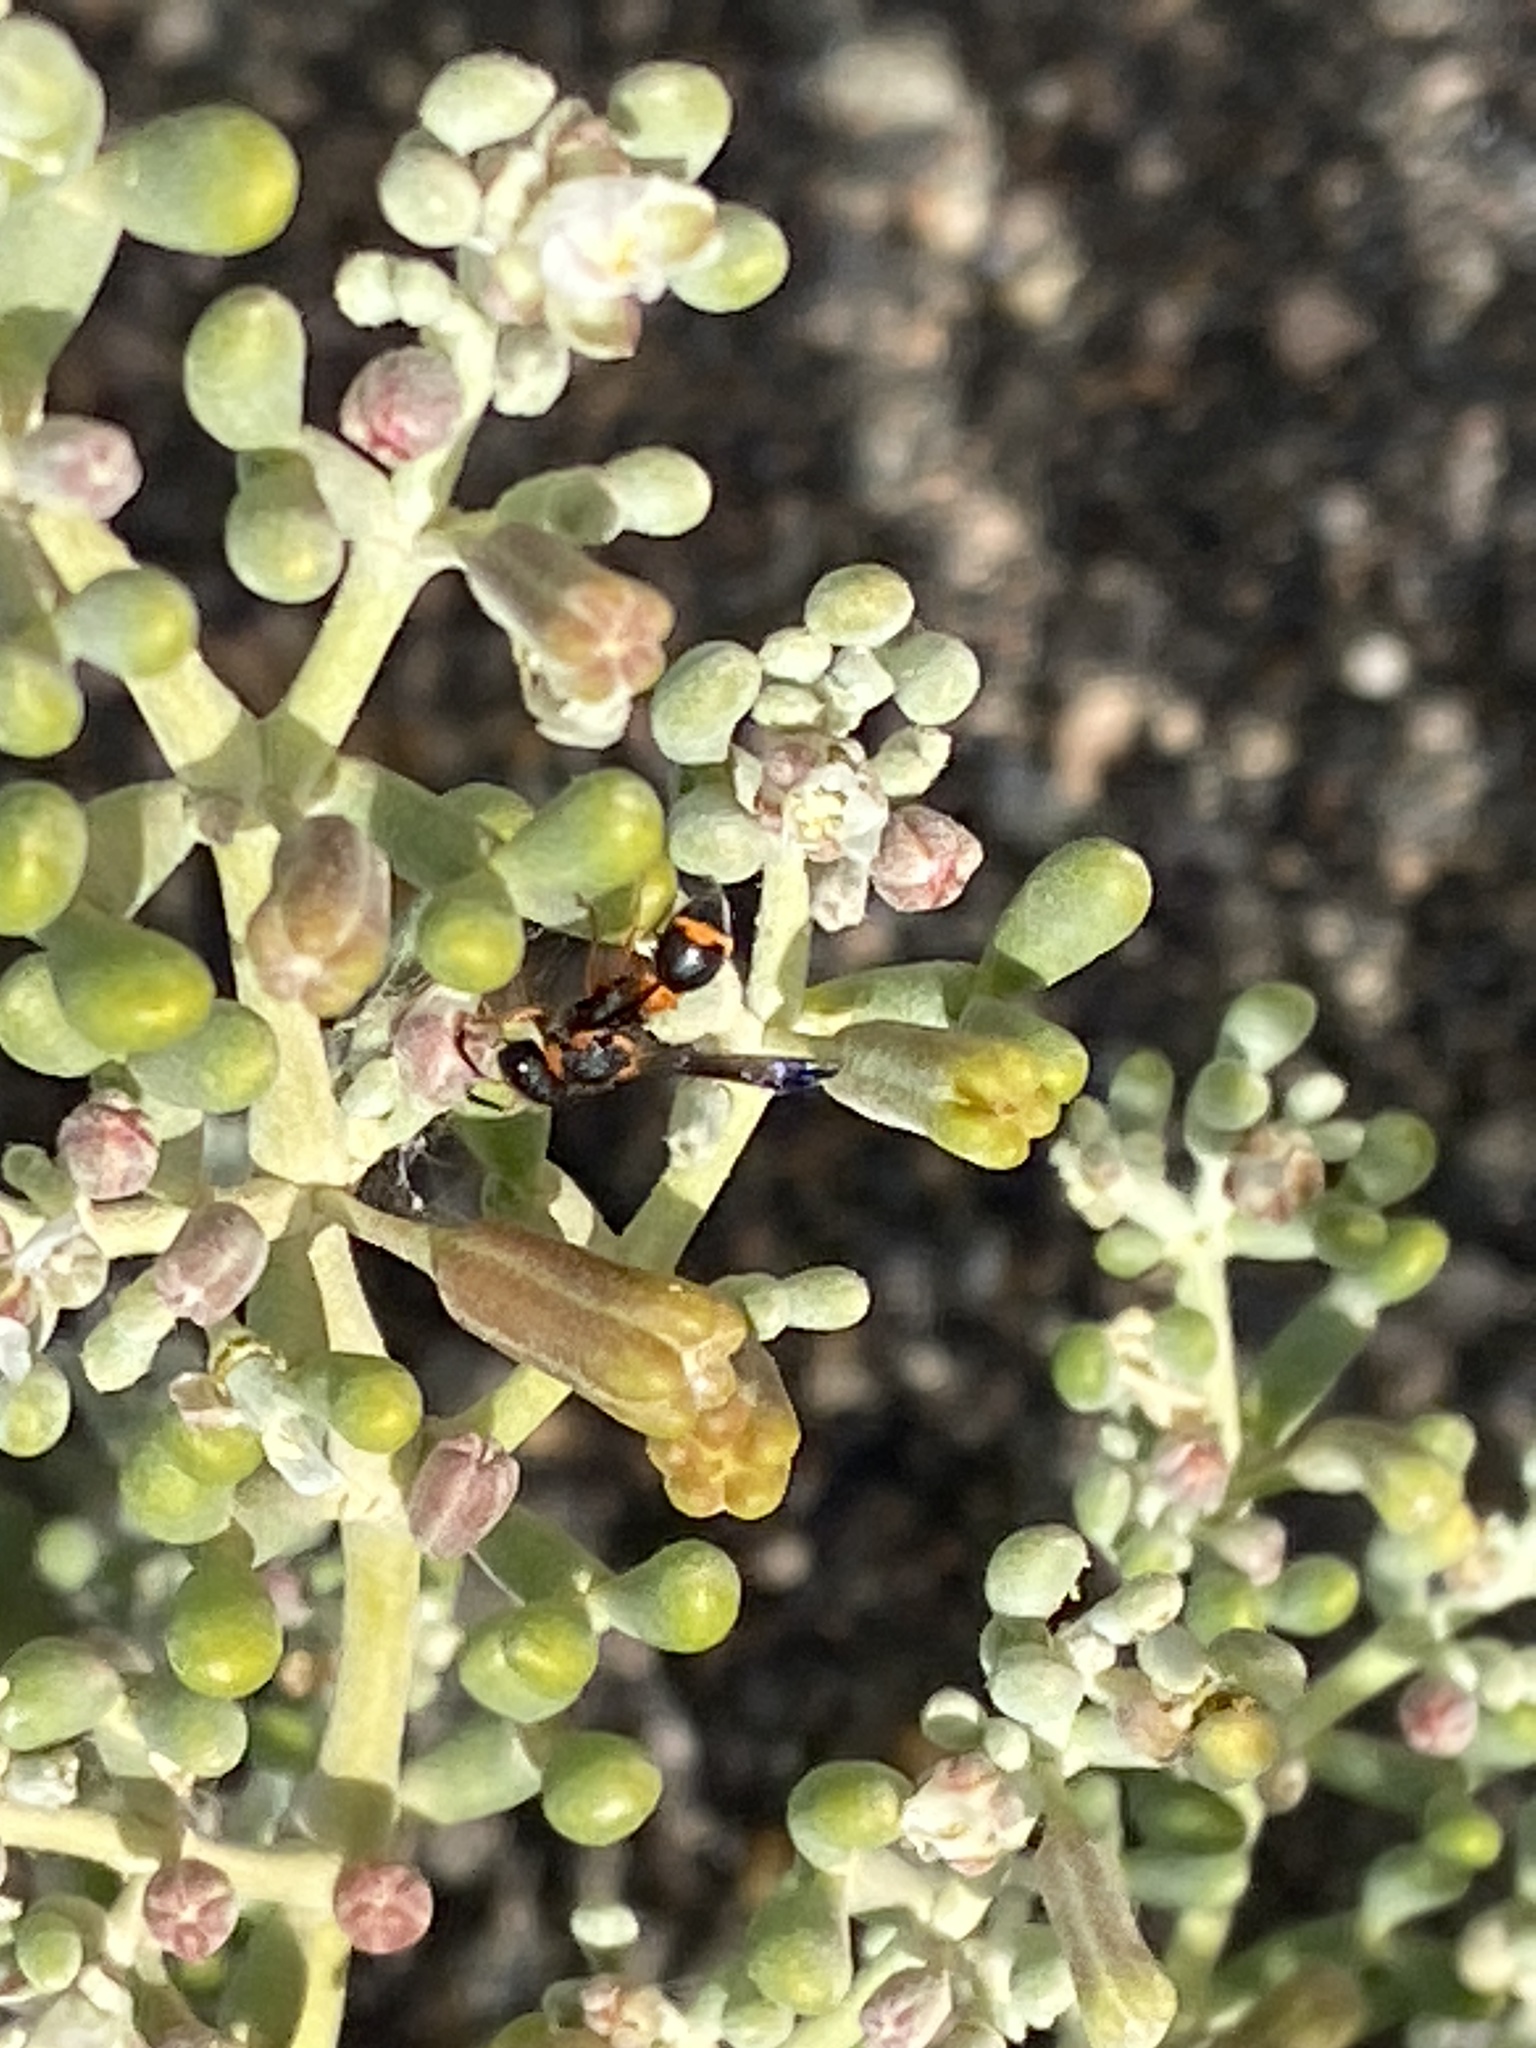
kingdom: Animalia
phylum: Arthropoda
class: Insecta
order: Hymenoptera
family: Eumenidae
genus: Leptochilus
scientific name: Leptochilus fortunatus
